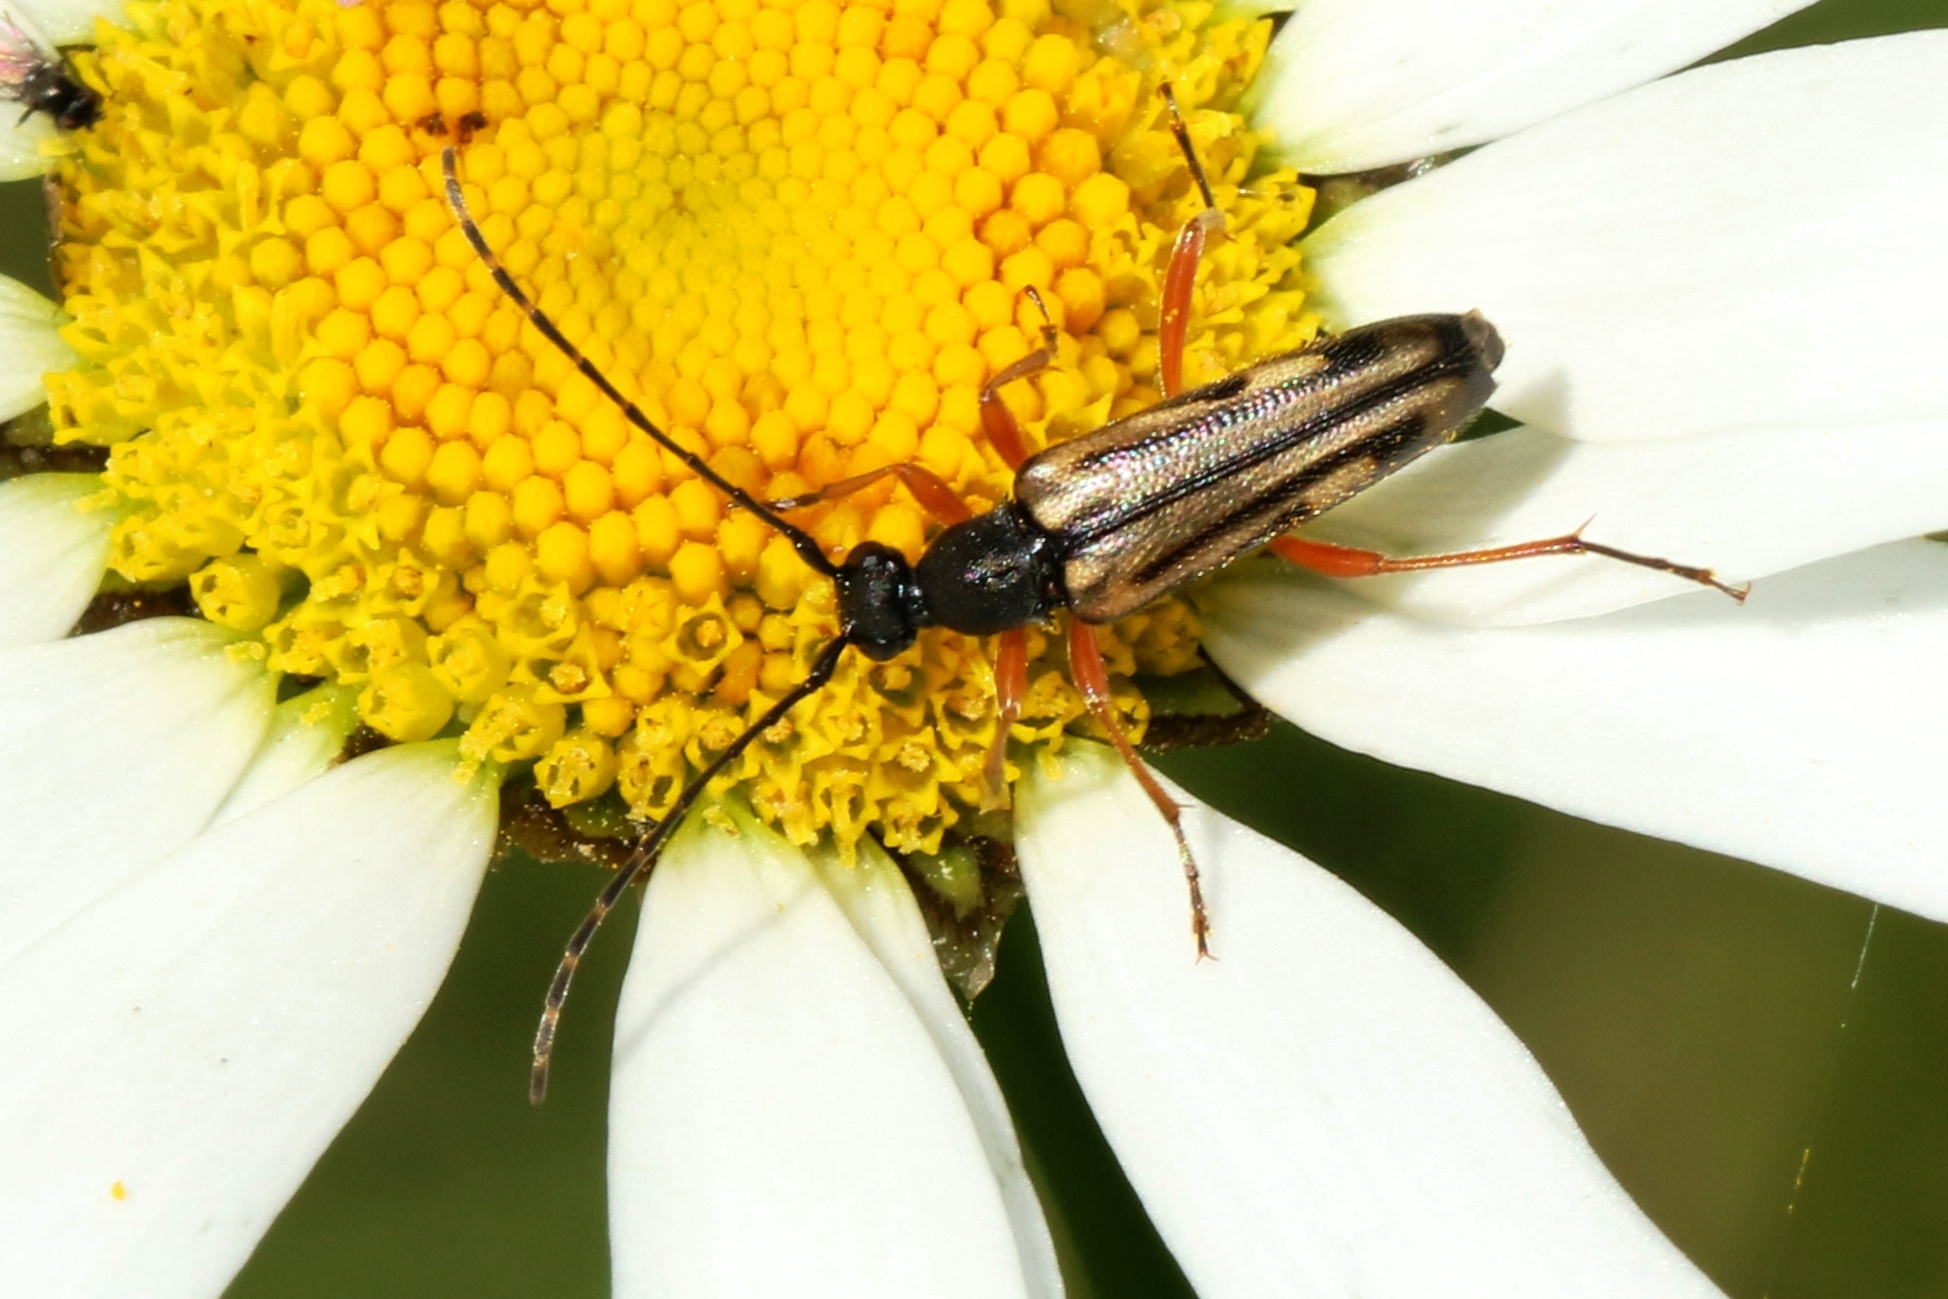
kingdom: Animalia
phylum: Arthropoda
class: Insecta
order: Coleoptera
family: Cerambycidae
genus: Analeptura
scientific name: Analeptura lineola
